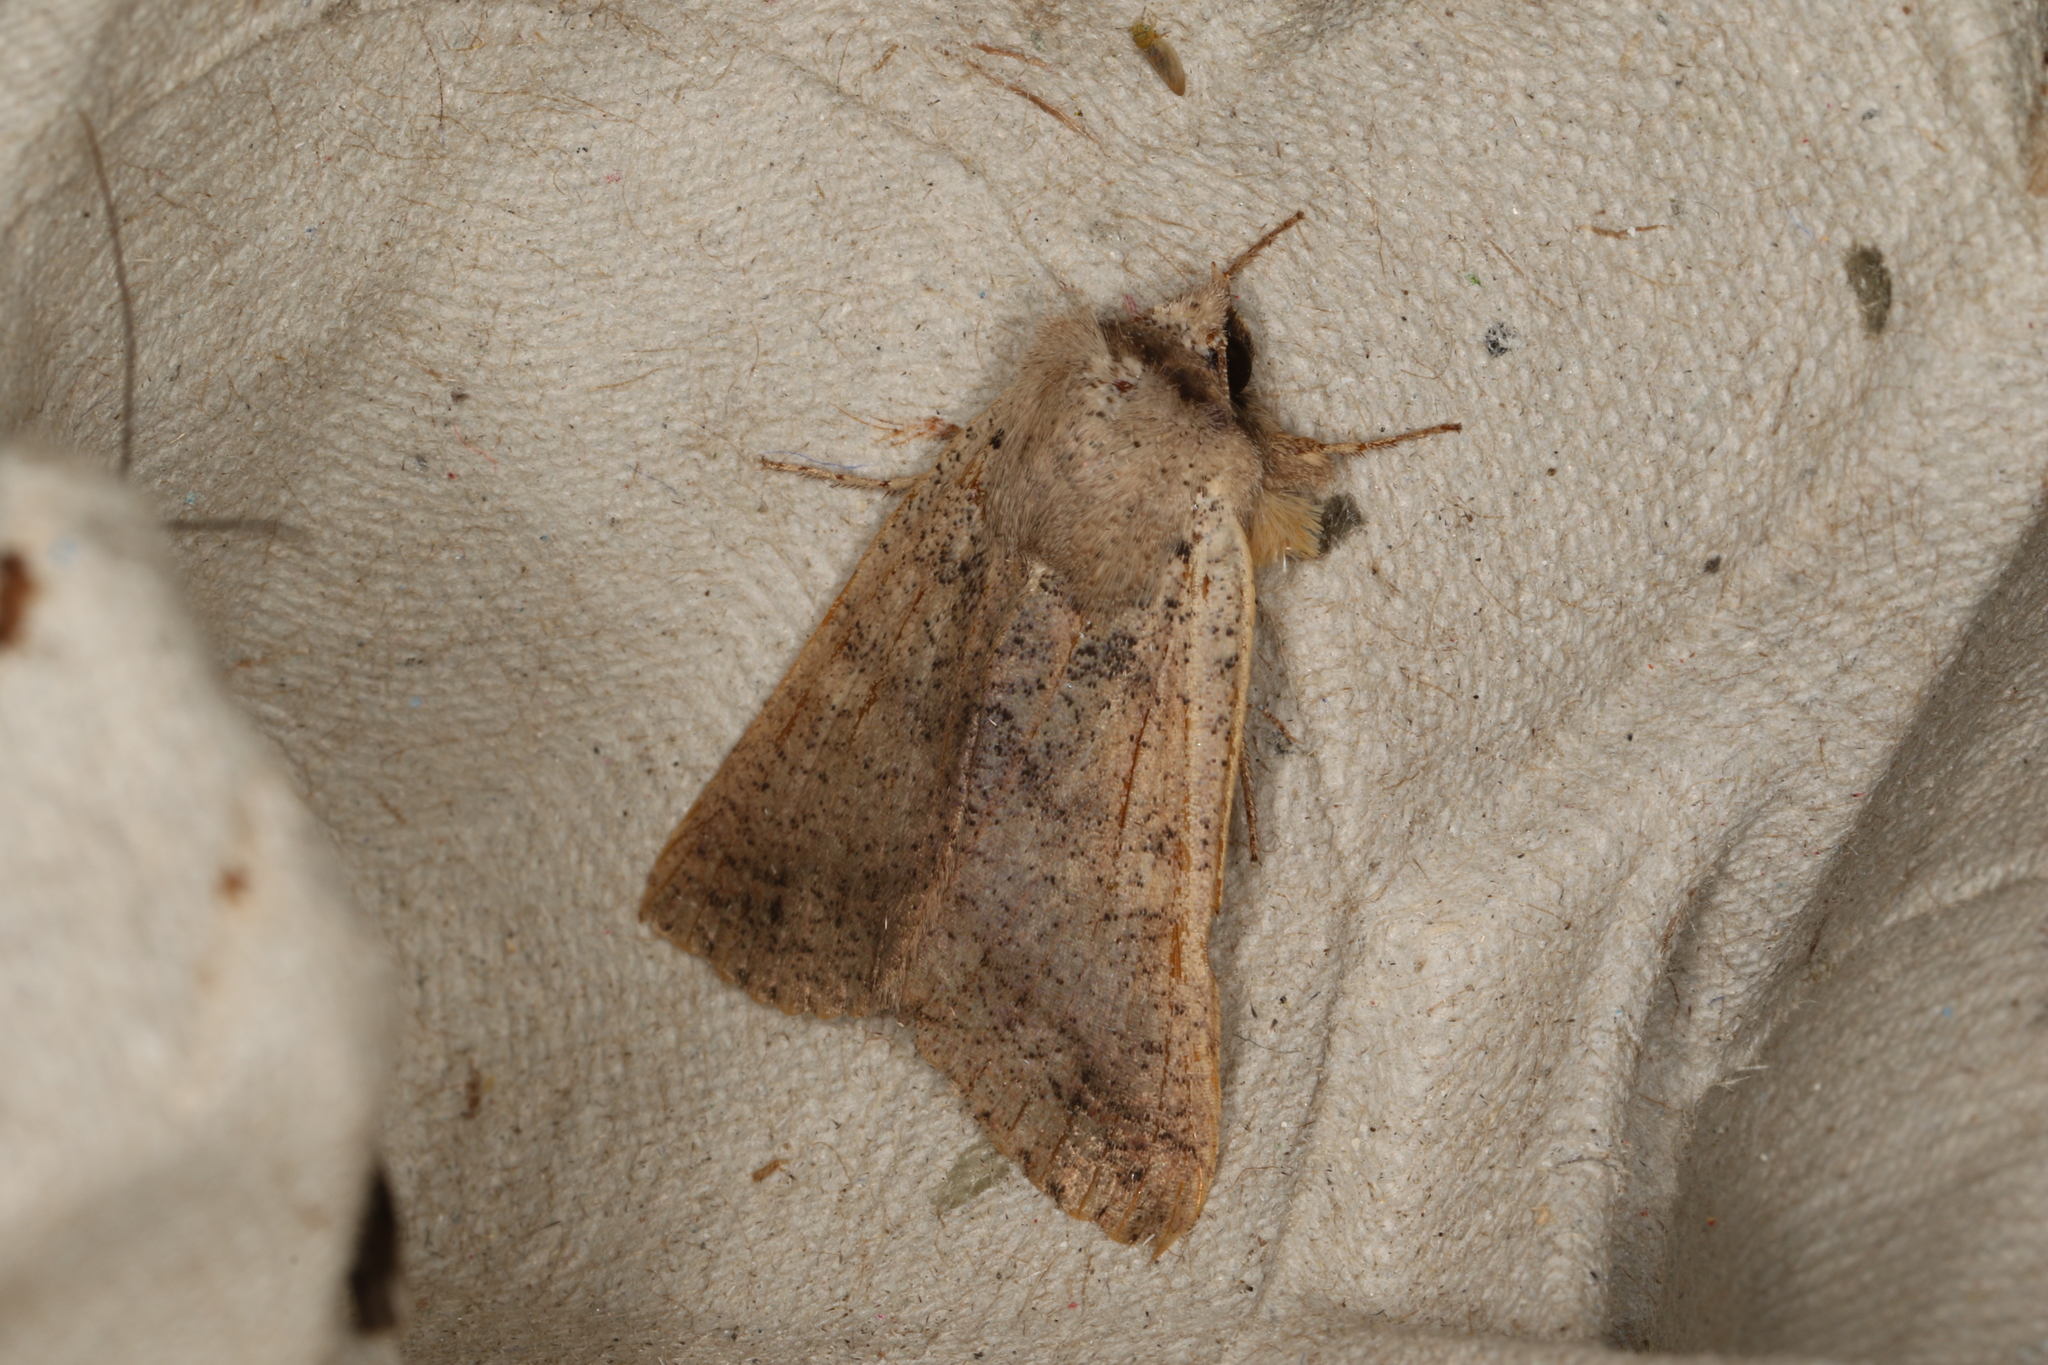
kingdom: Animalia
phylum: Arthropoda
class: Insecta
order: Lepidoptera
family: Erebidae
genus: Pantydia
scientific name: Pantydia sparsa
